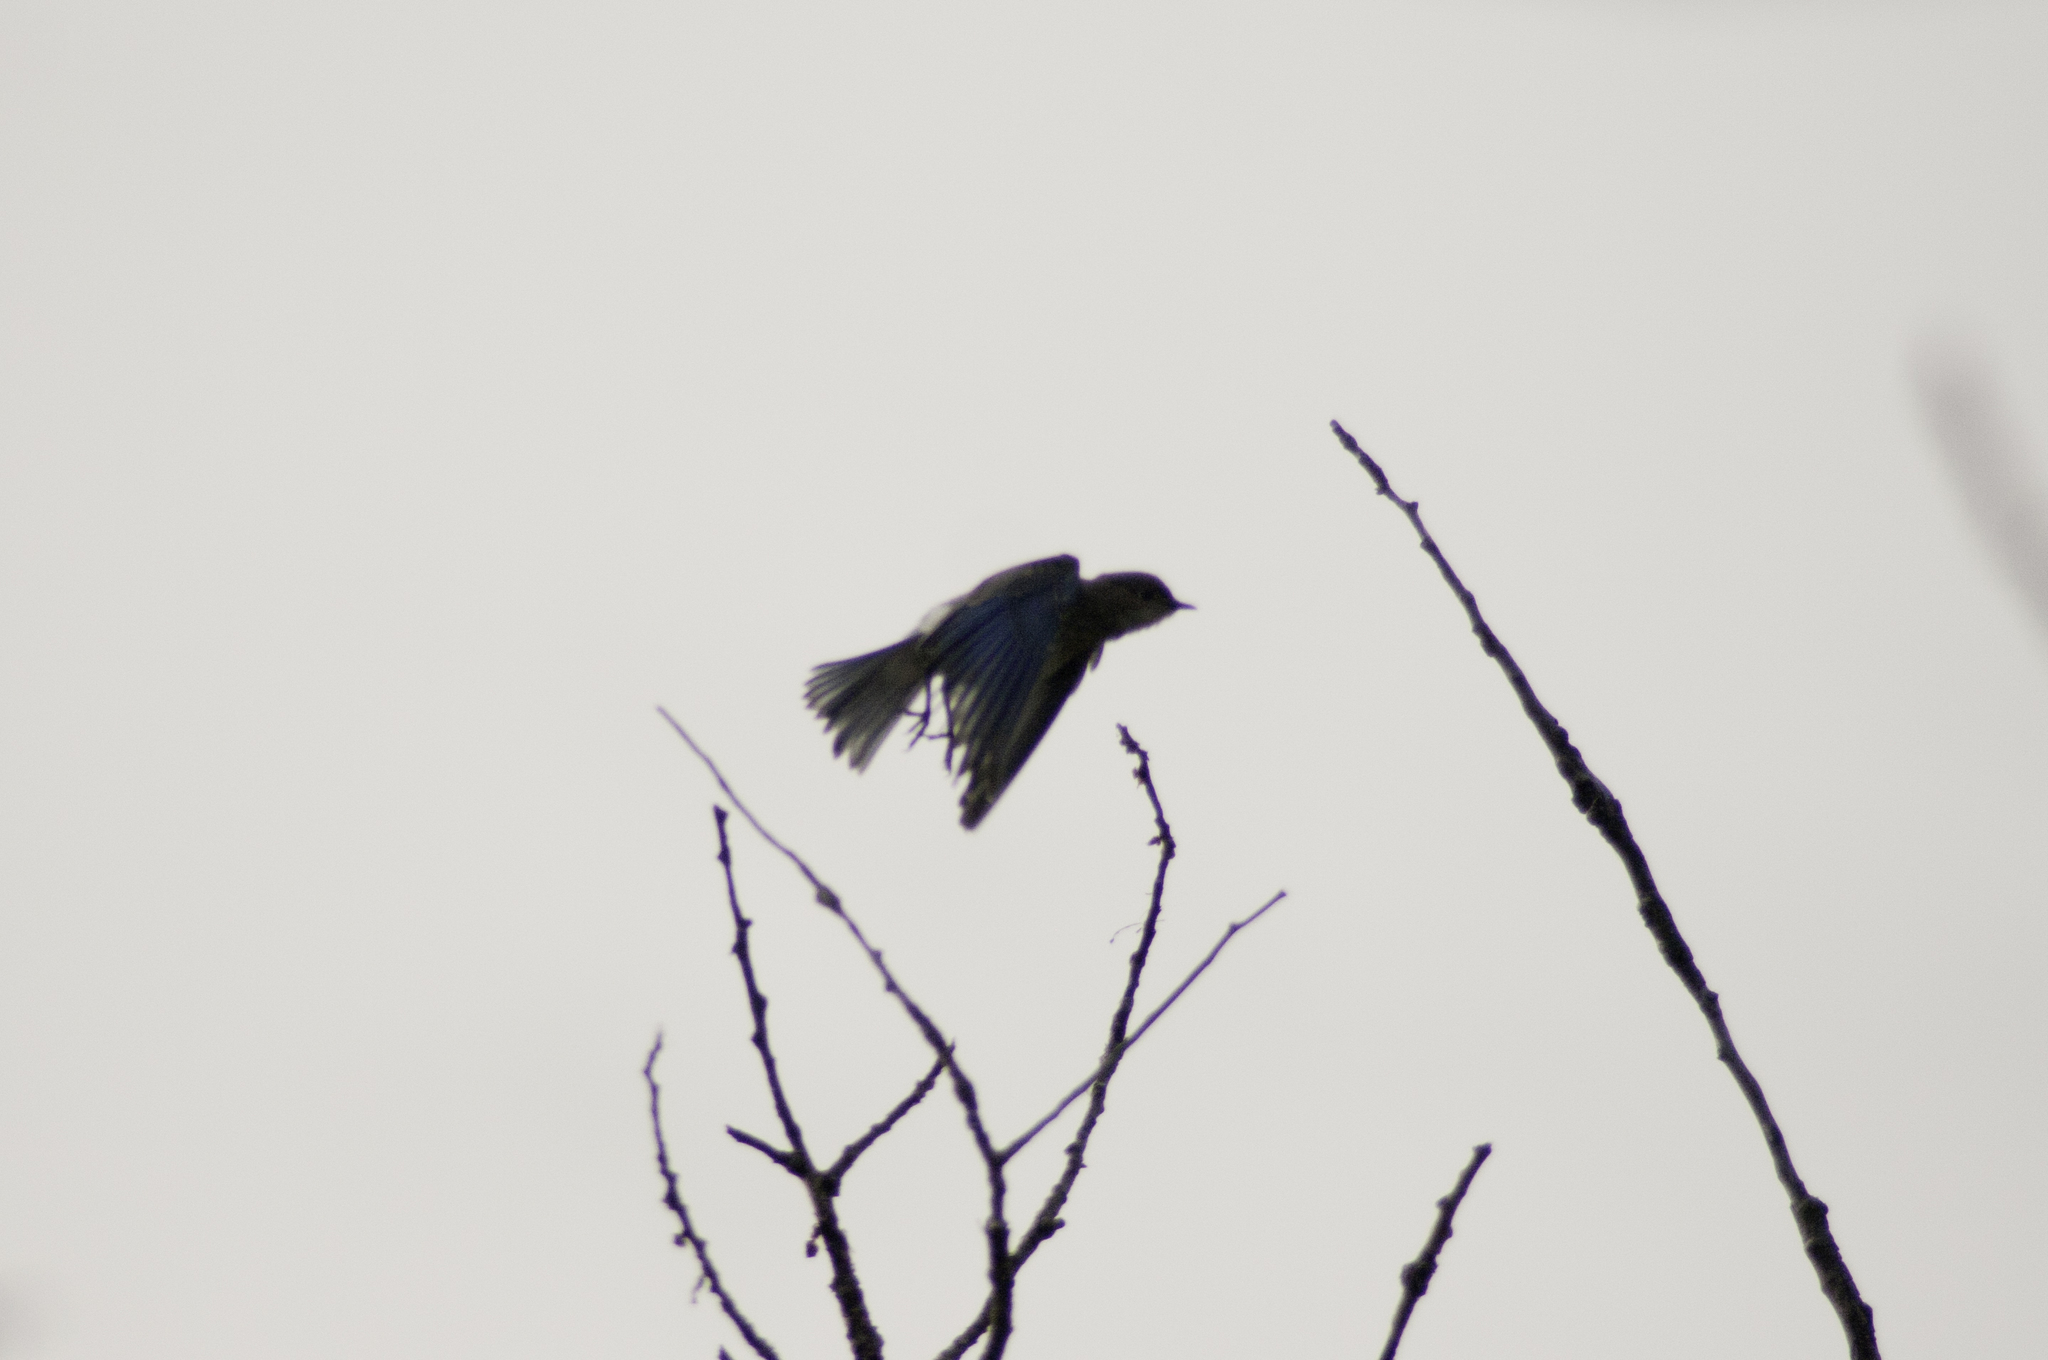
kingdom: Animalia
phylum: Chordata
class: Aves
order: Passeriformes
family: Turdidae
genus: Sialia
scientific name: Sialia currucoides
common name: Mountain bluebird
